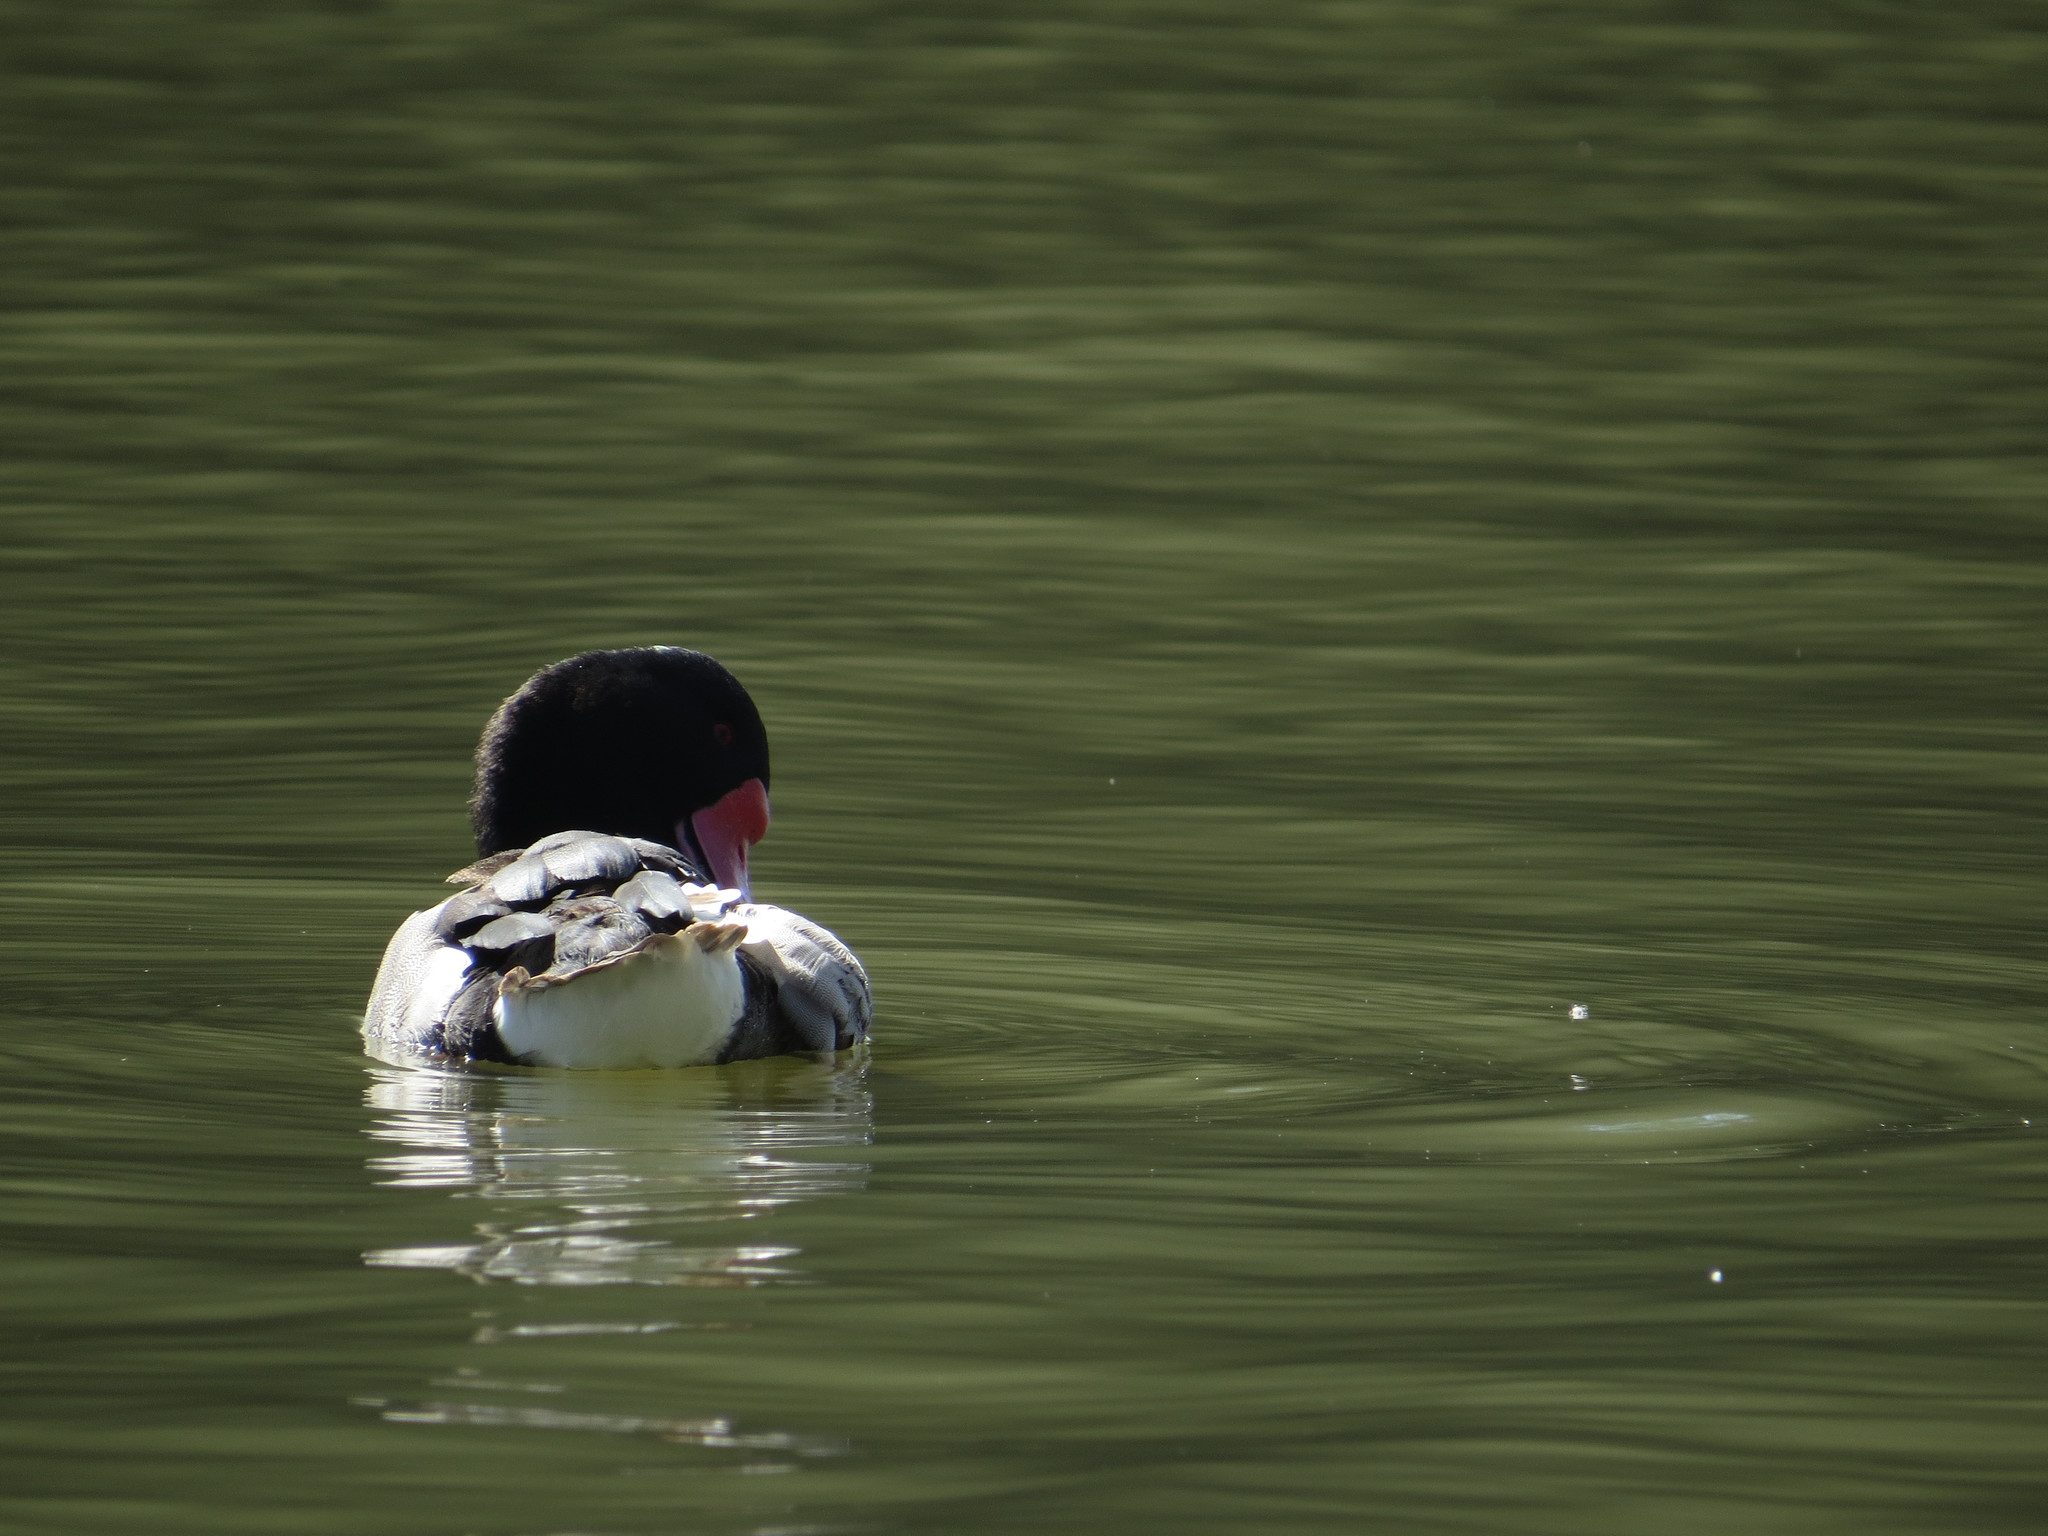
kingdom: Animalia
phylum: Chordata
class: Aves
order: Anseriformes
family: Anatidae
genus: Netta
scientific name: Netta peposaca
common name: Rosy-billed pochard
